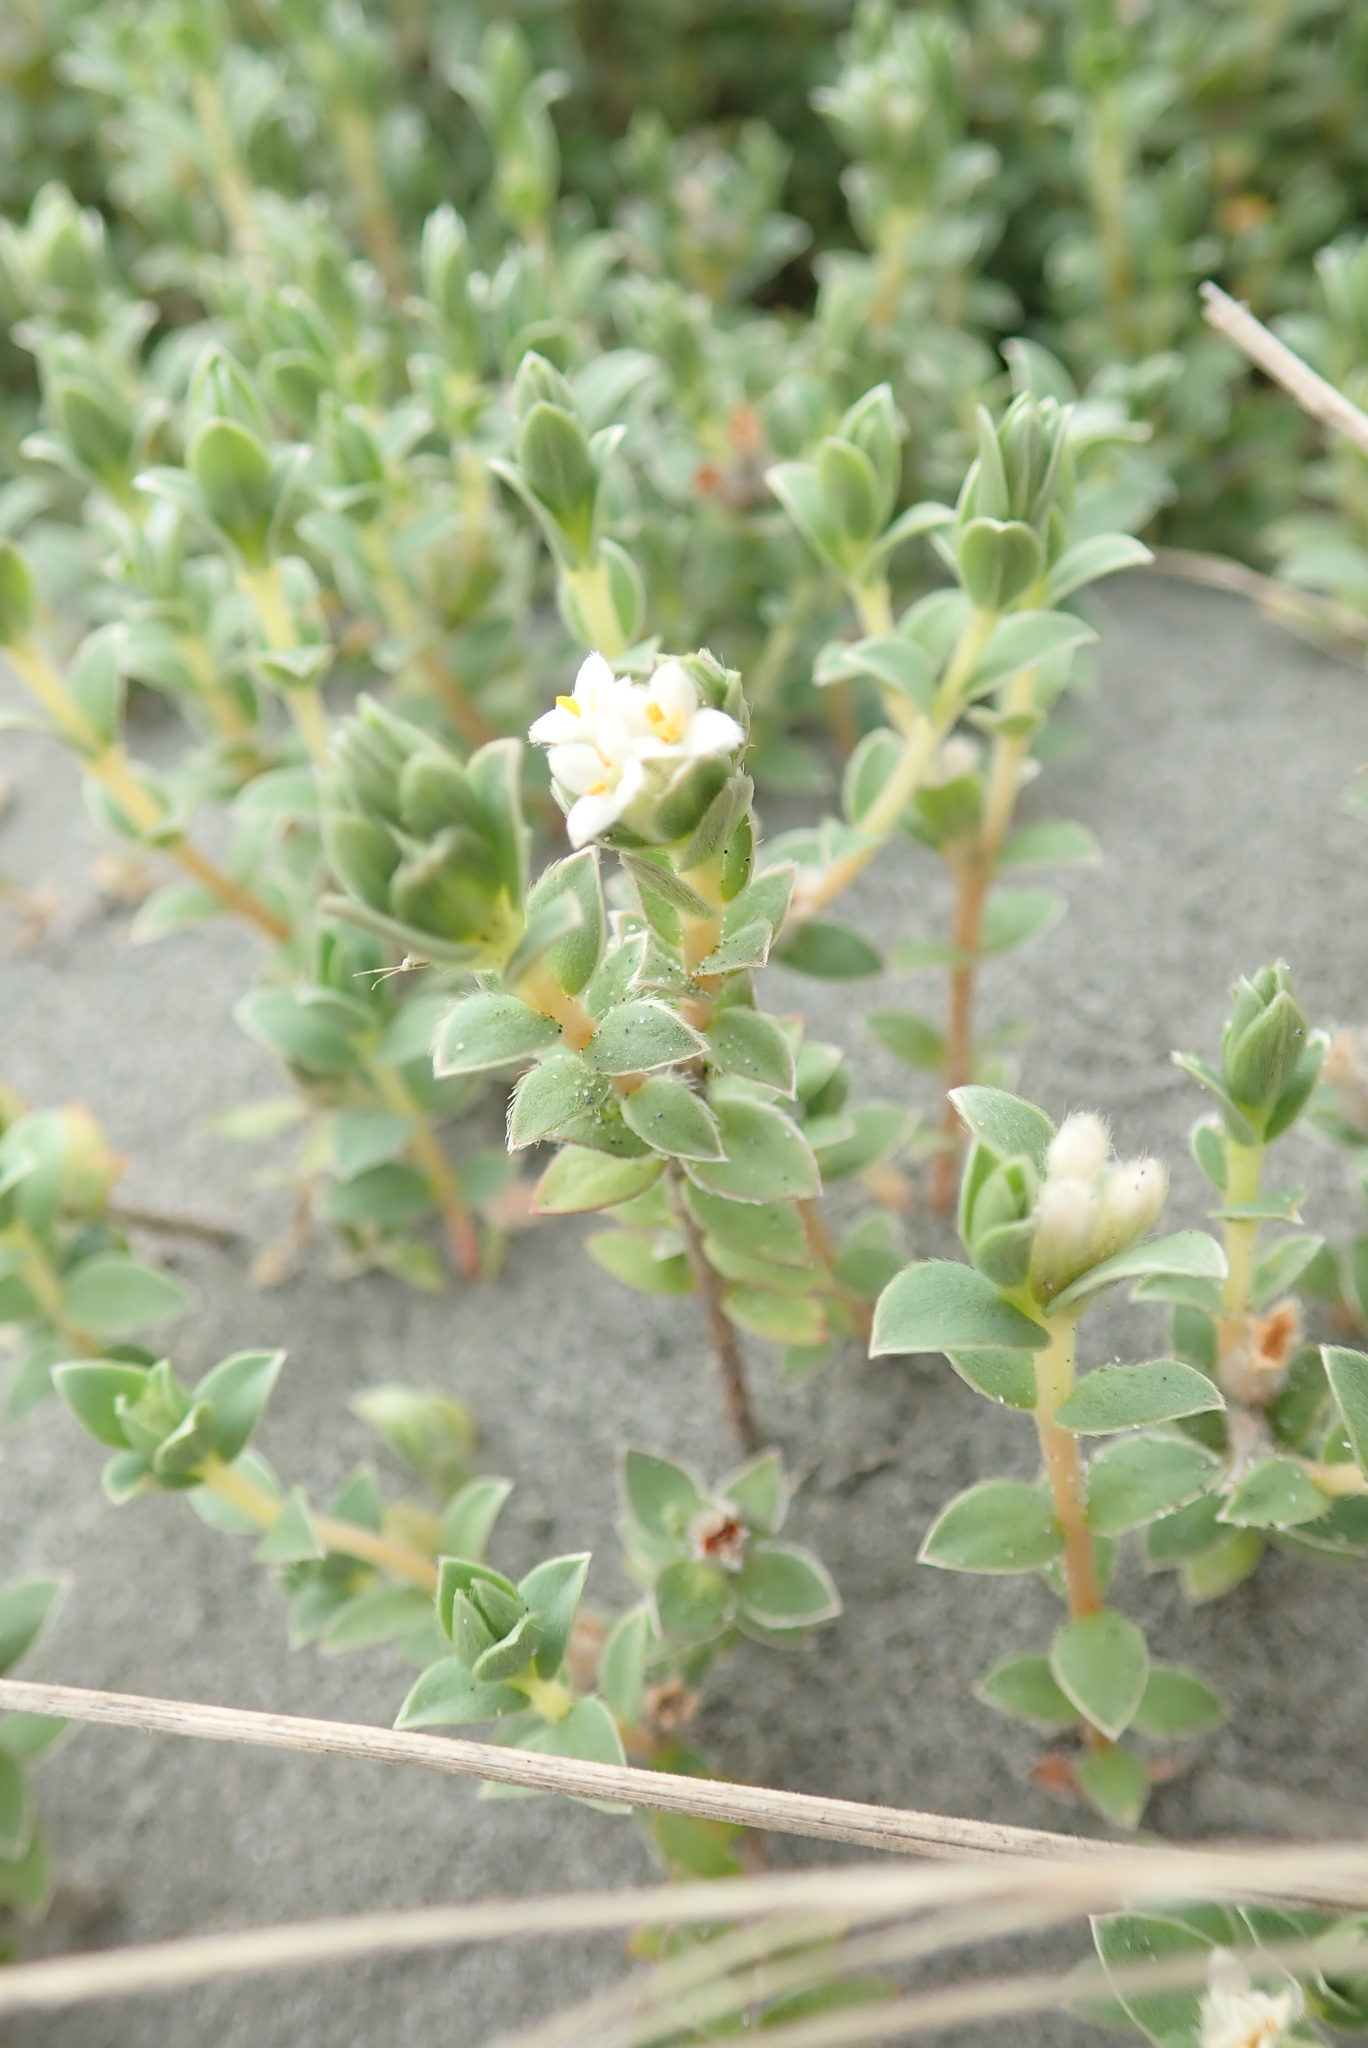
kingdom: Plantae
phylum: Tracheophyta
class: Magnoliopsida
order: Malvales
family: Thymelaeaceae
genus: Pimelea
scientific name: Pimelea villosa
